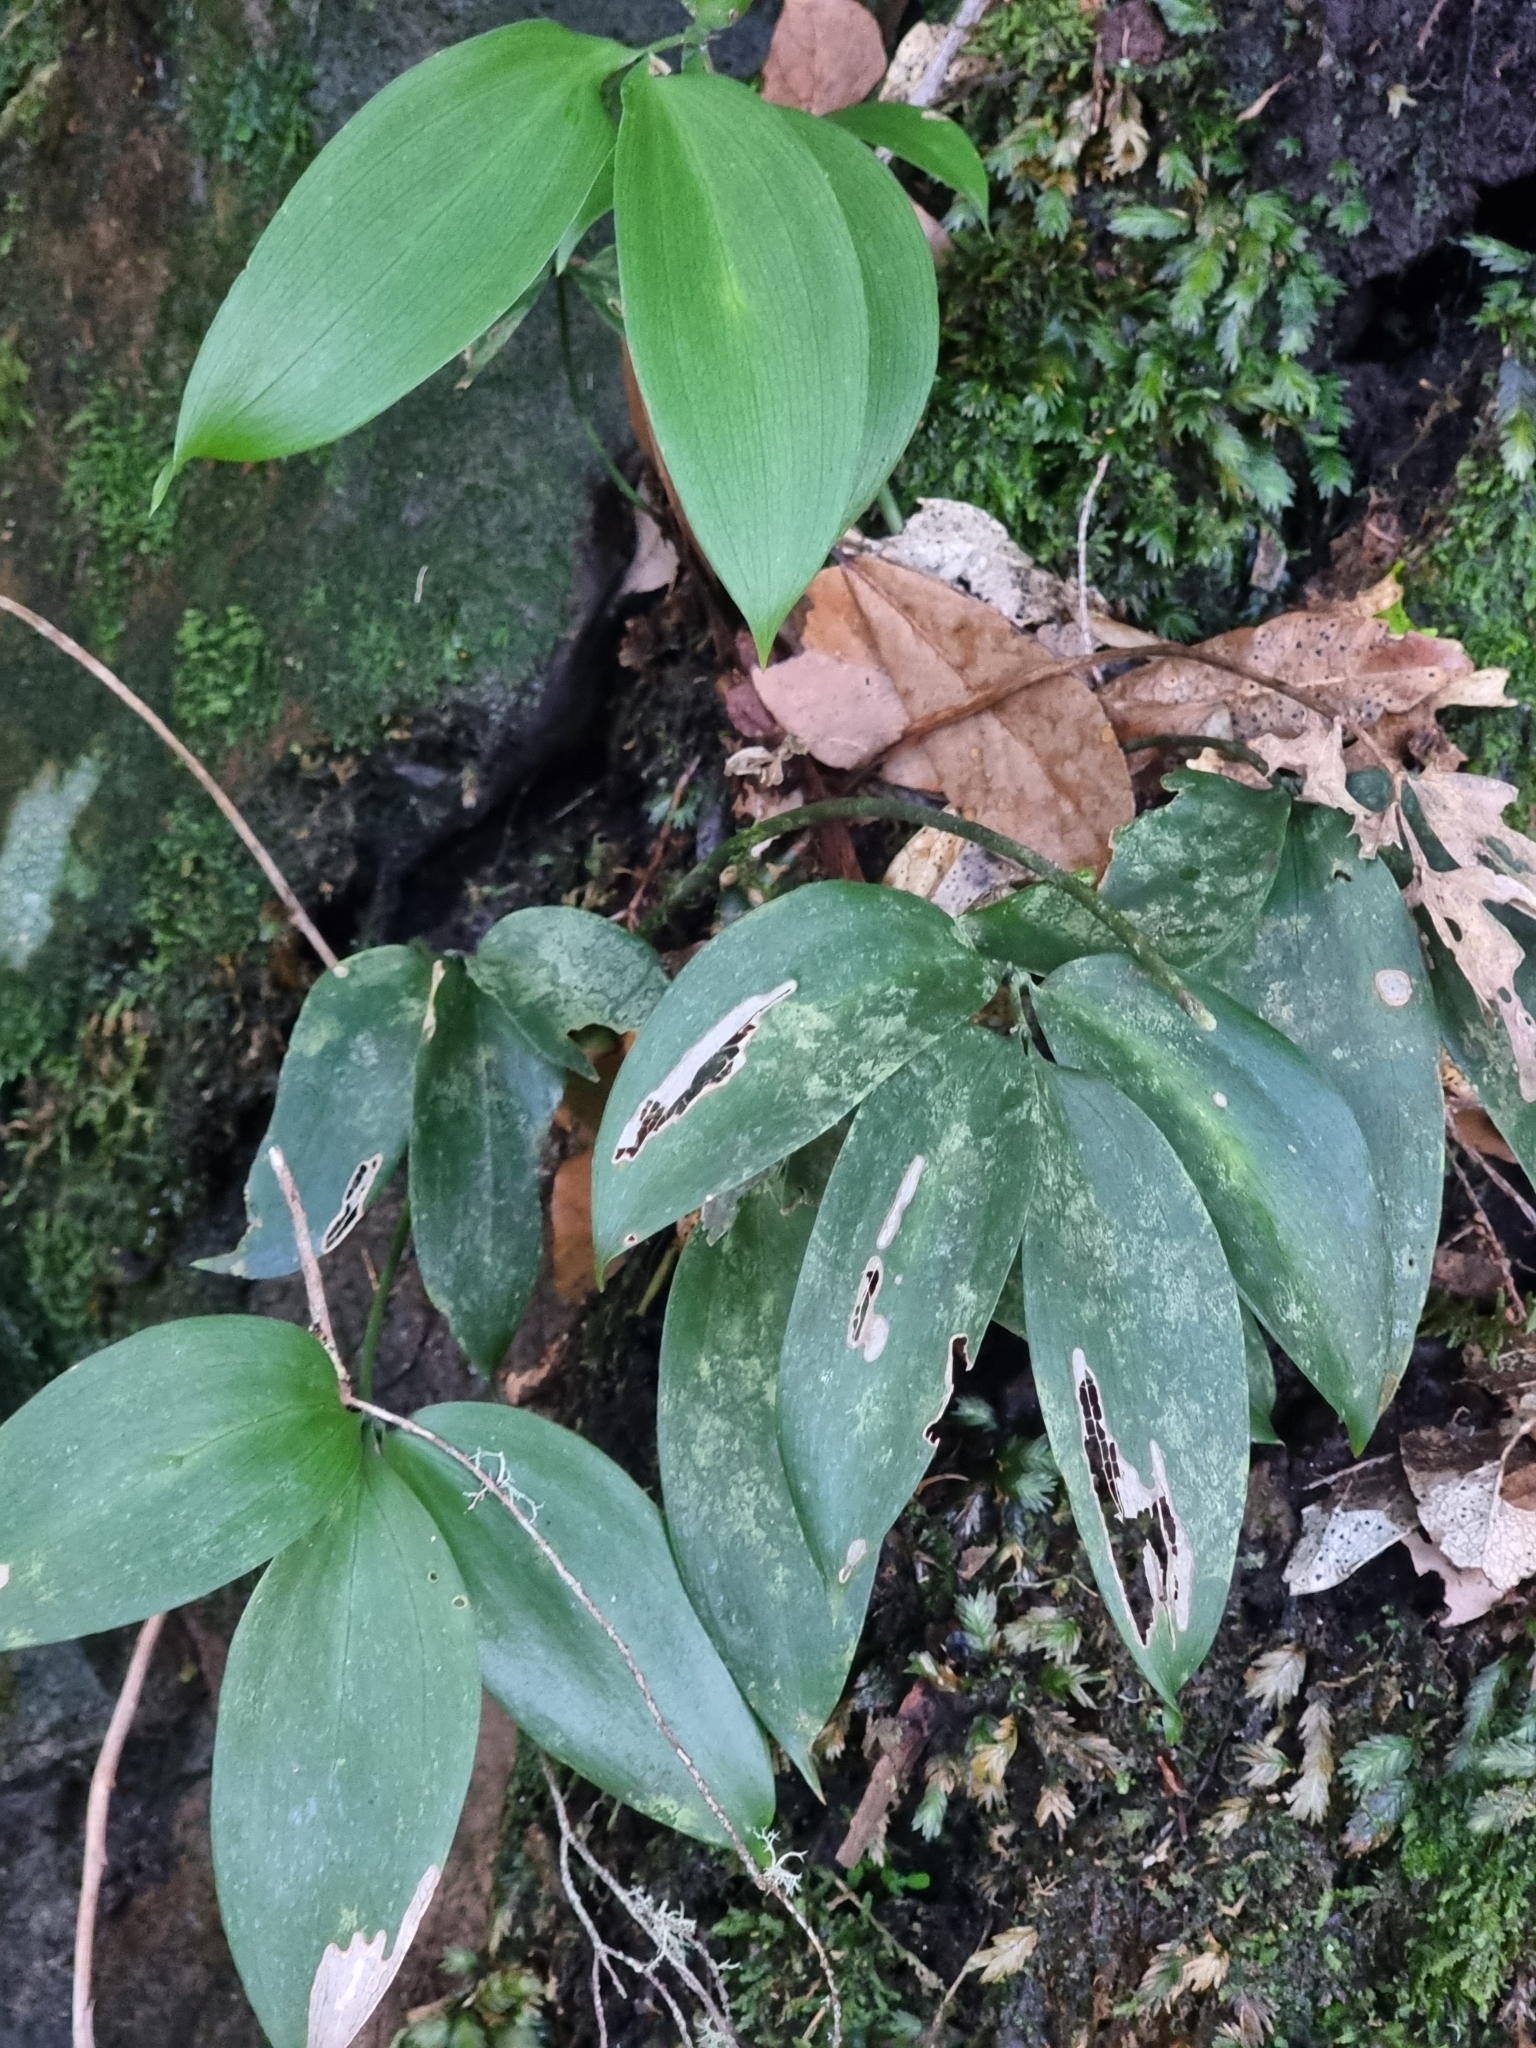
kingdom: Plantae
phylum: Tracheophyta
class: Liliopsida
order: Asparagales
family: Asparagaceae
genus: Ruscus
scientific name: Ruscus streptophyllus
